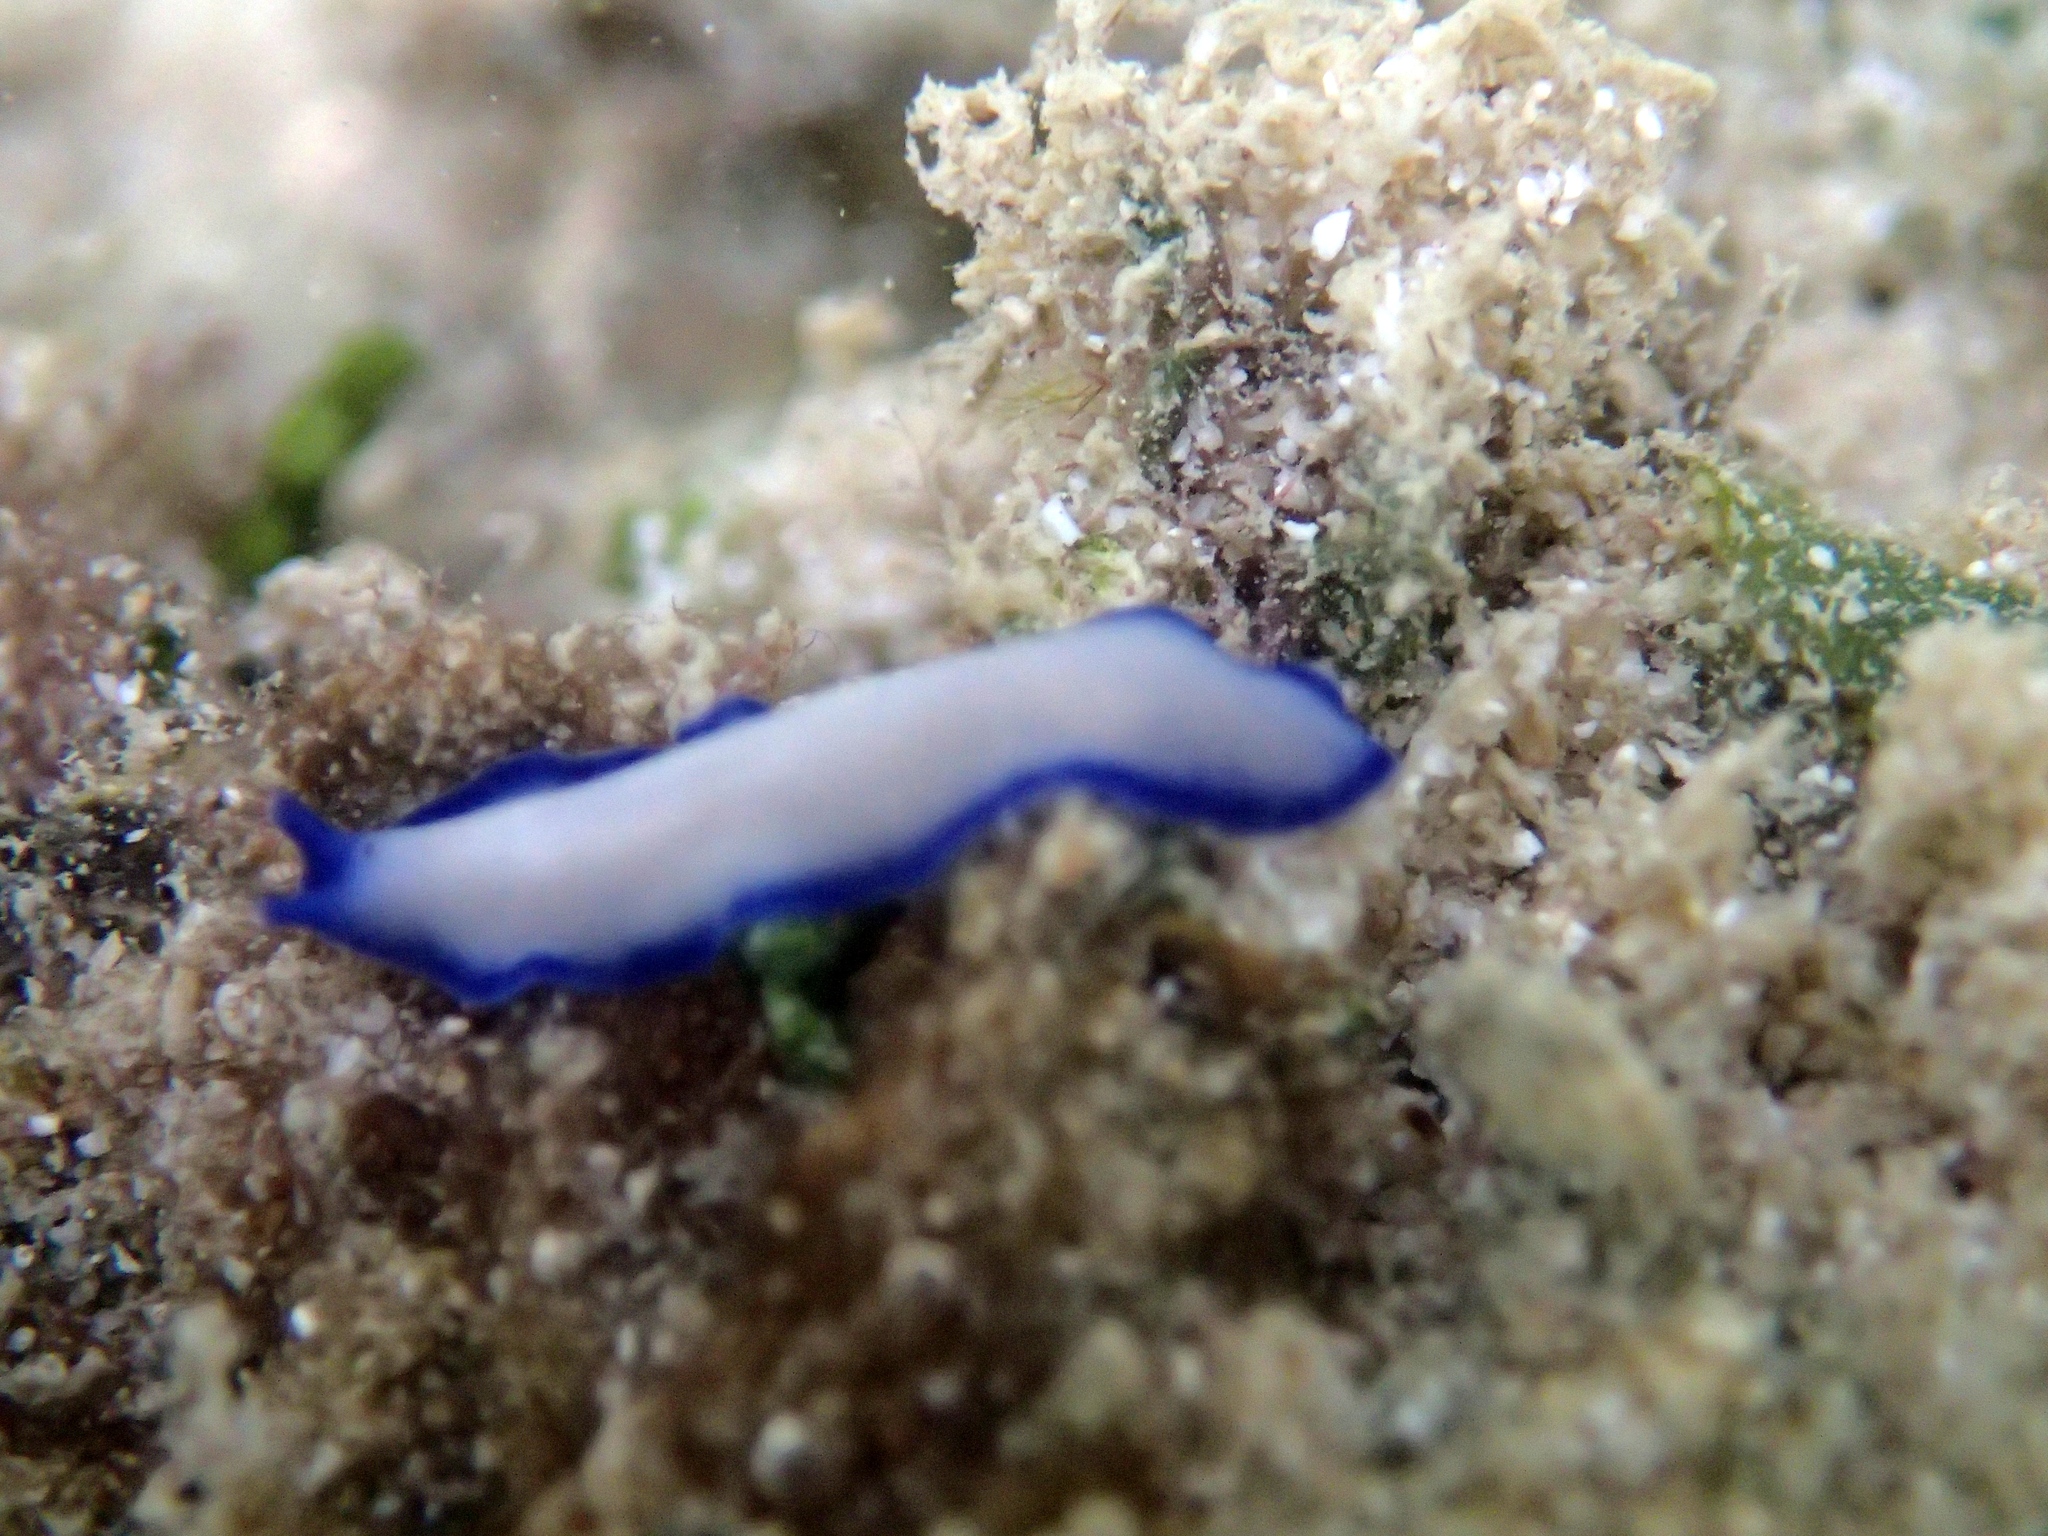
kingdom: Animalia
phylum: Platyhelminthes
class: Turbellaria
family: Pseudocerotidae
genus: Pseudoceros
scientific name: Pseudoceros indicus
